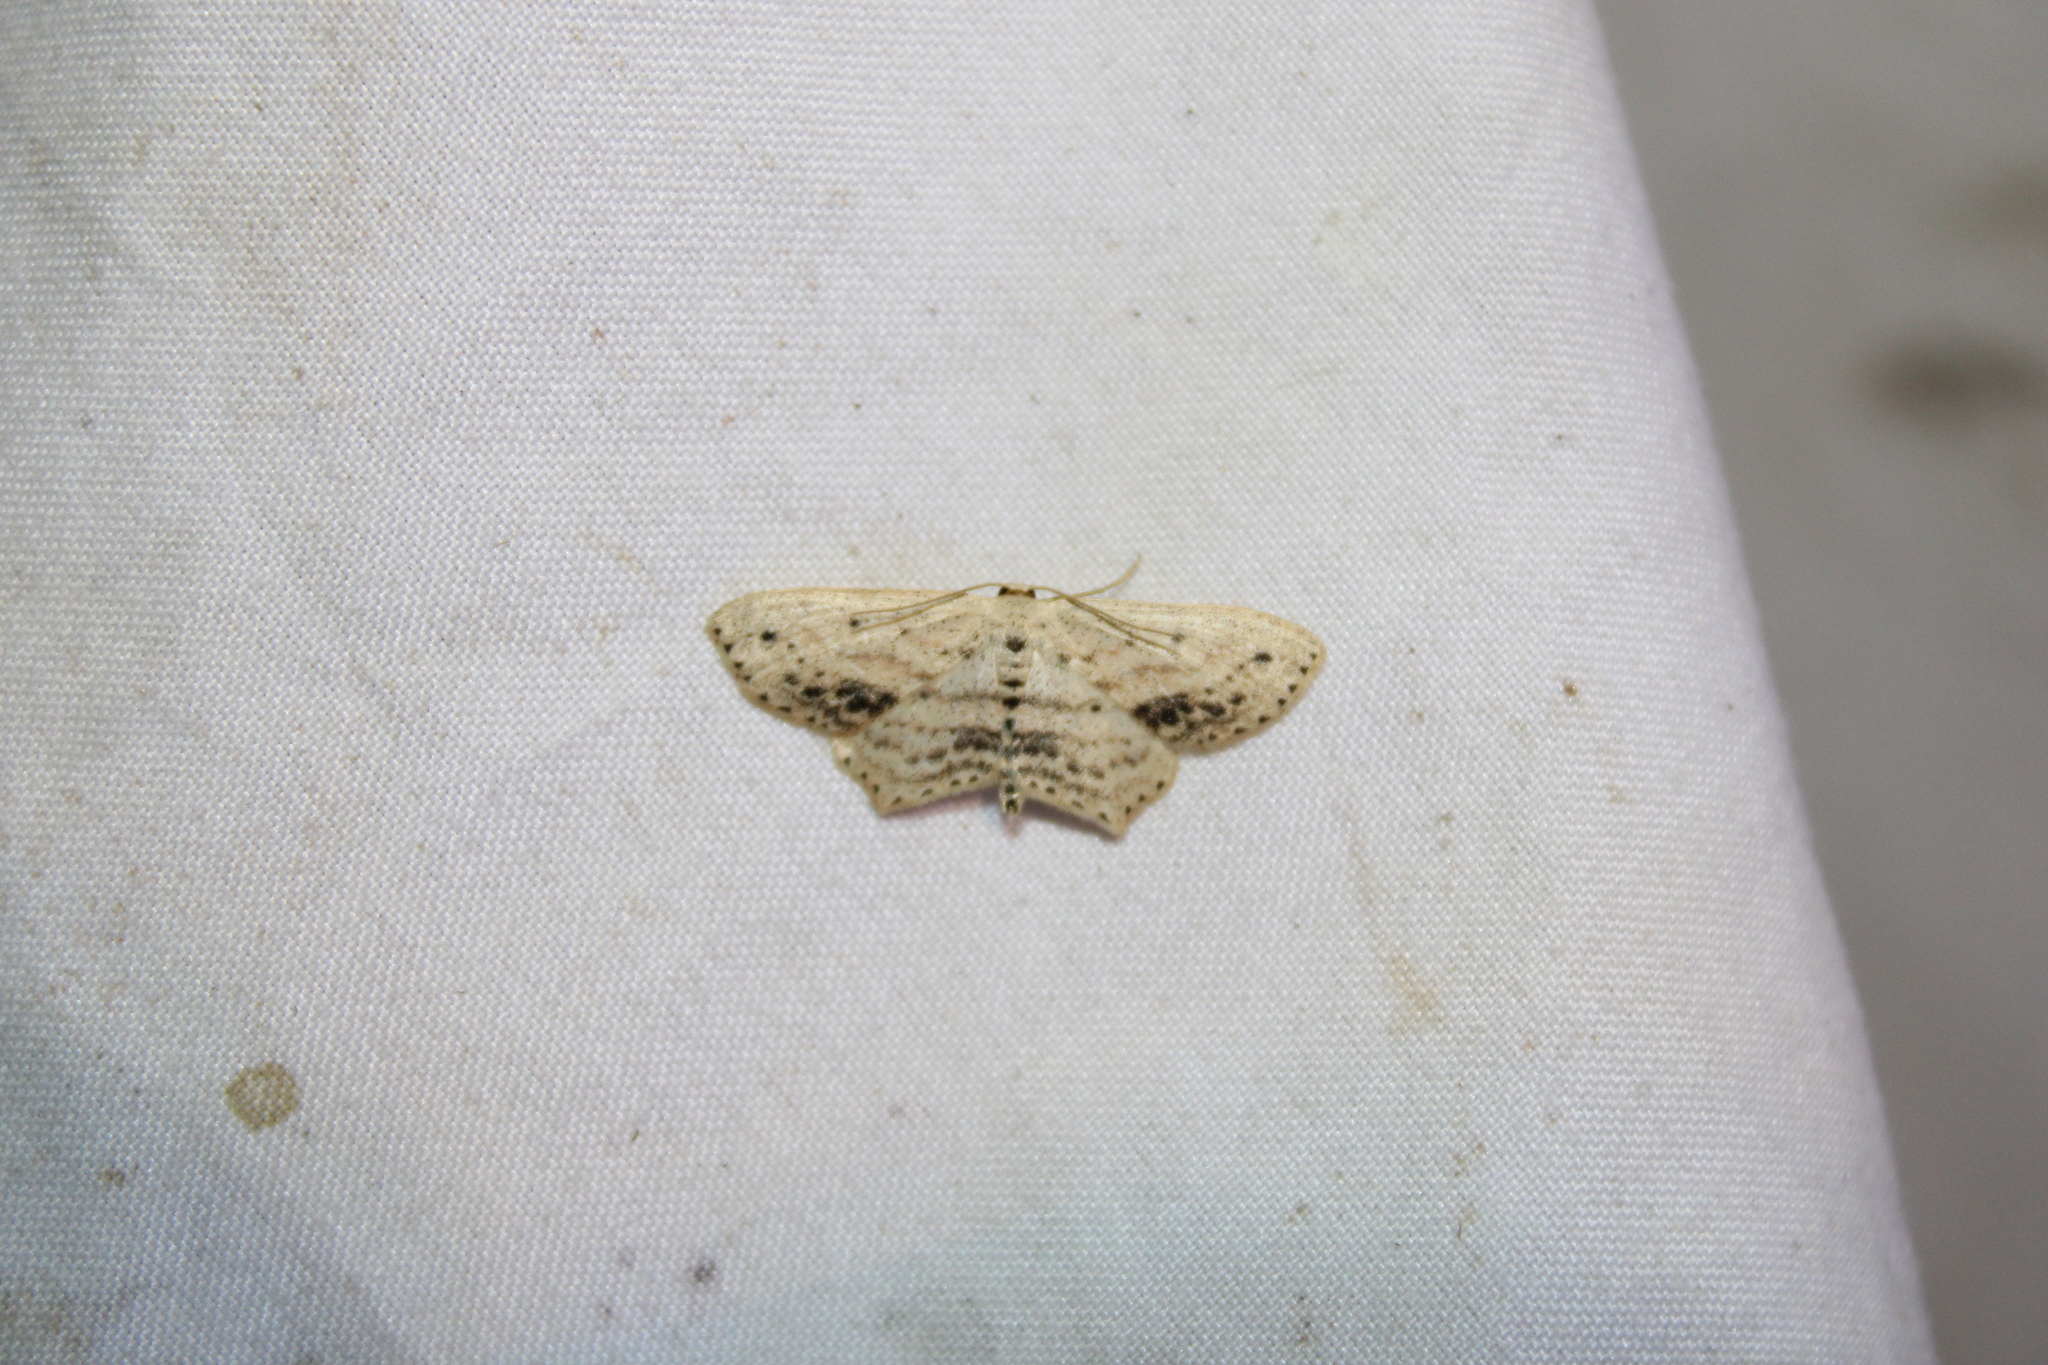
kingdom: Animalia
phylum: Arthropoda
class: Insecta
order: Lepidoptera
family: Geometridae
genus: Scopula
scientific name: Scopula cacuminaria
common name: Frosted tan wave
